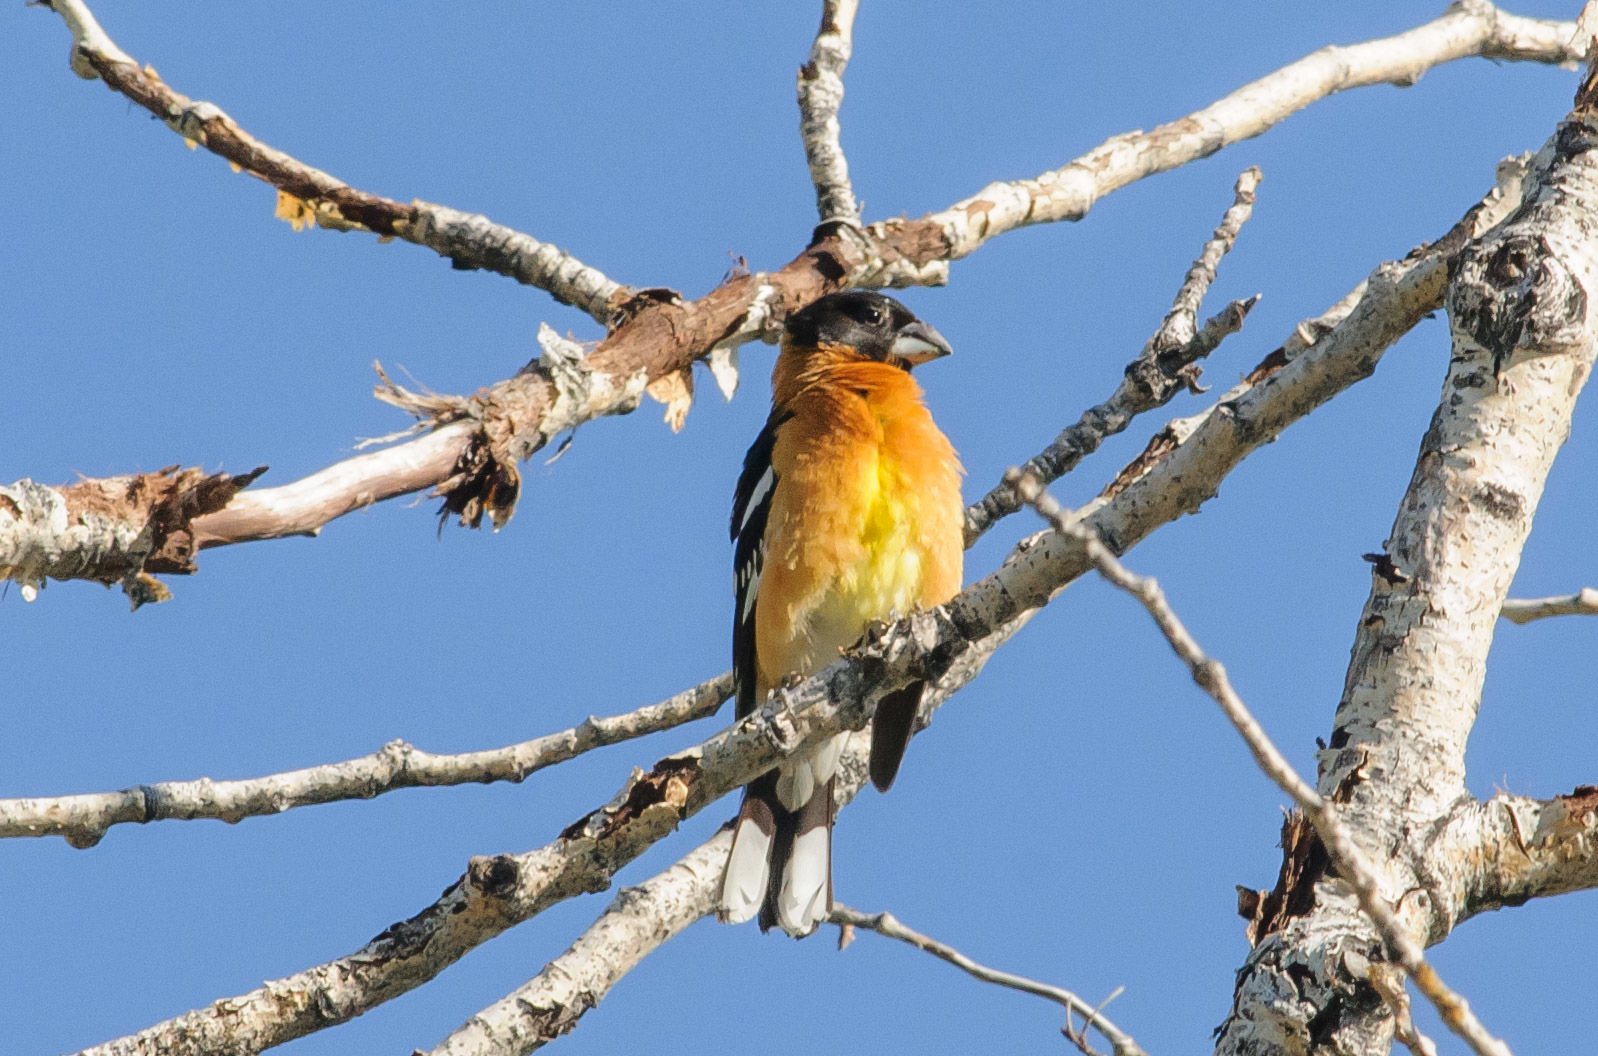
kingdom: Animalia
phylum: Chordata
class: Aves
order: Passeriformes
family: Cardinalidae
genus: Pheucticus
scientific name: Pheucticus melanocephalus
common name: Black-headed grosbeak
